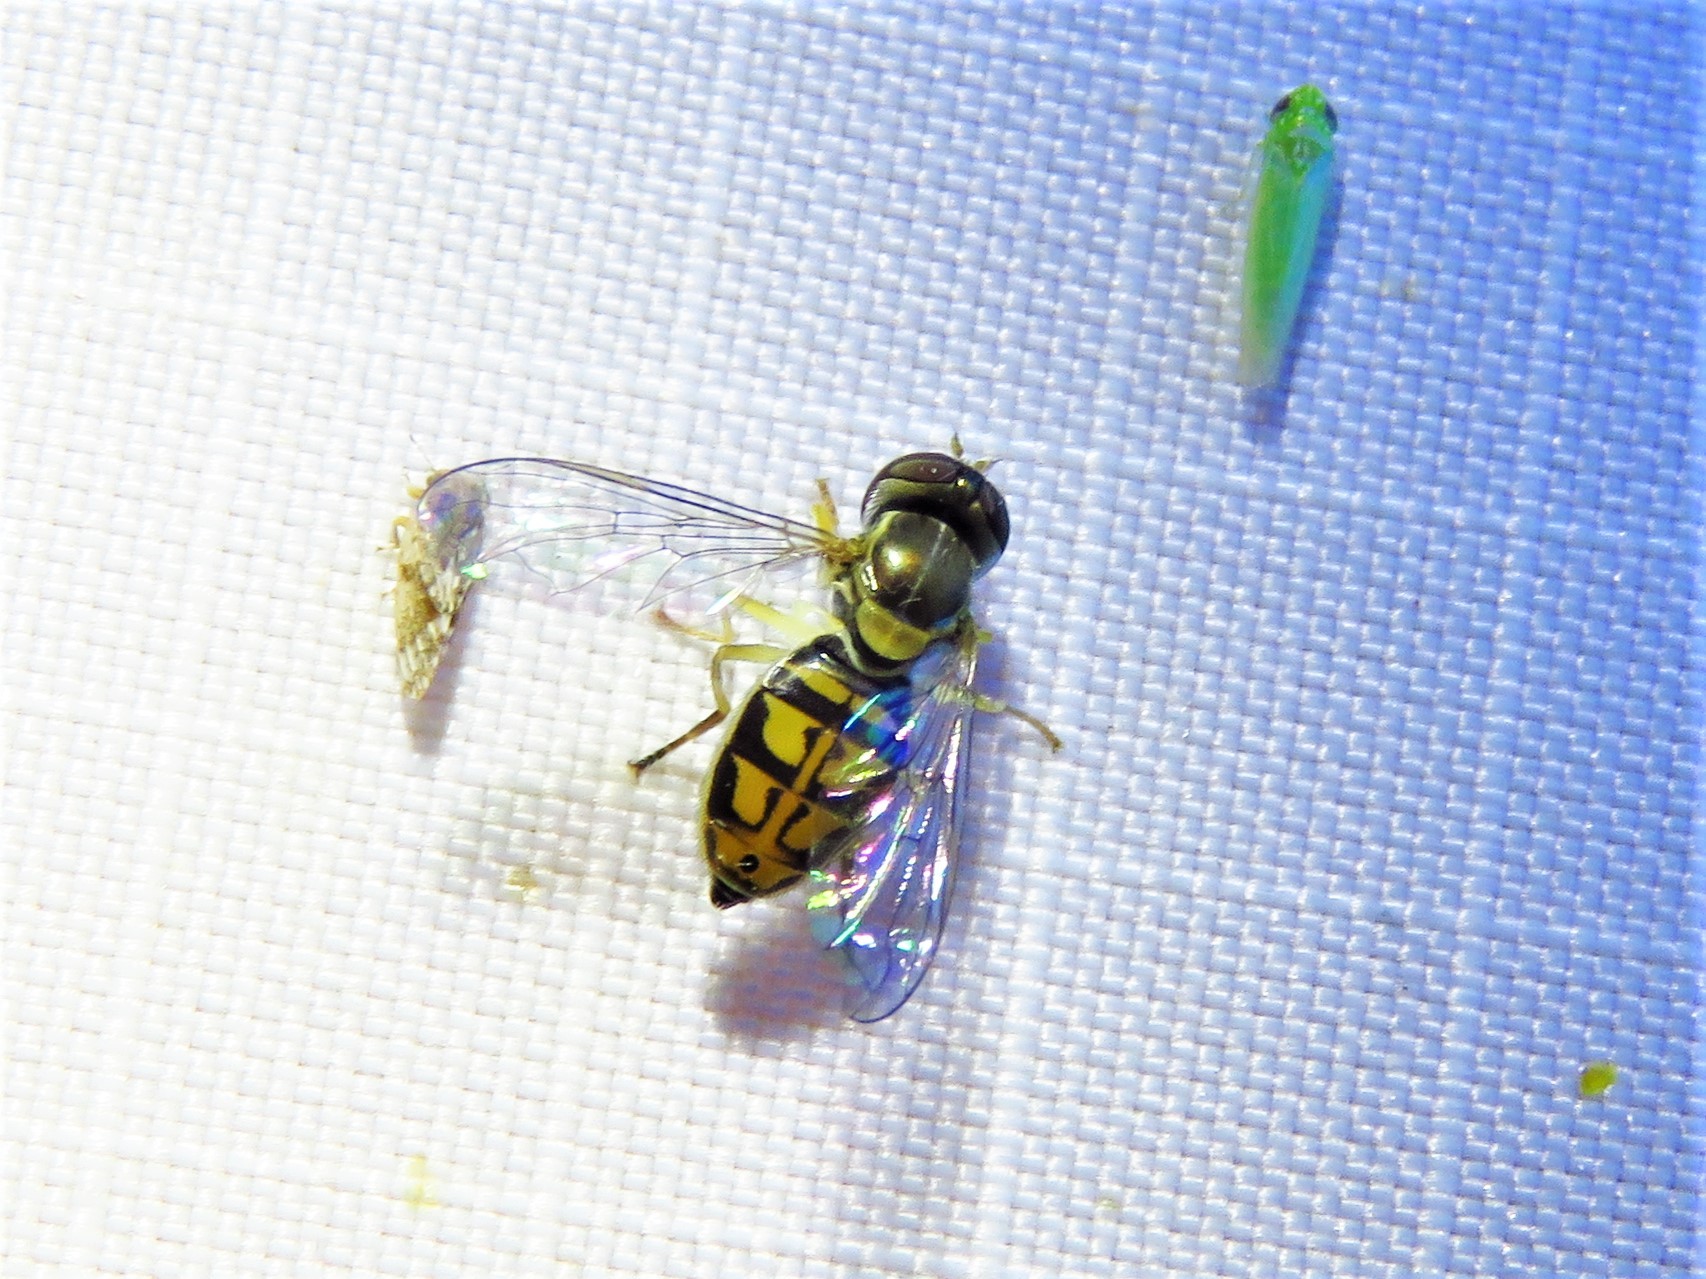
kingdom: Animalia
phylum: Arthropoda
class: Insecta
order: Diptera
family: Syrphidae
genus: Toxomerus
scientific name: Toxomerus marginatus
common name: Syrphid fly
